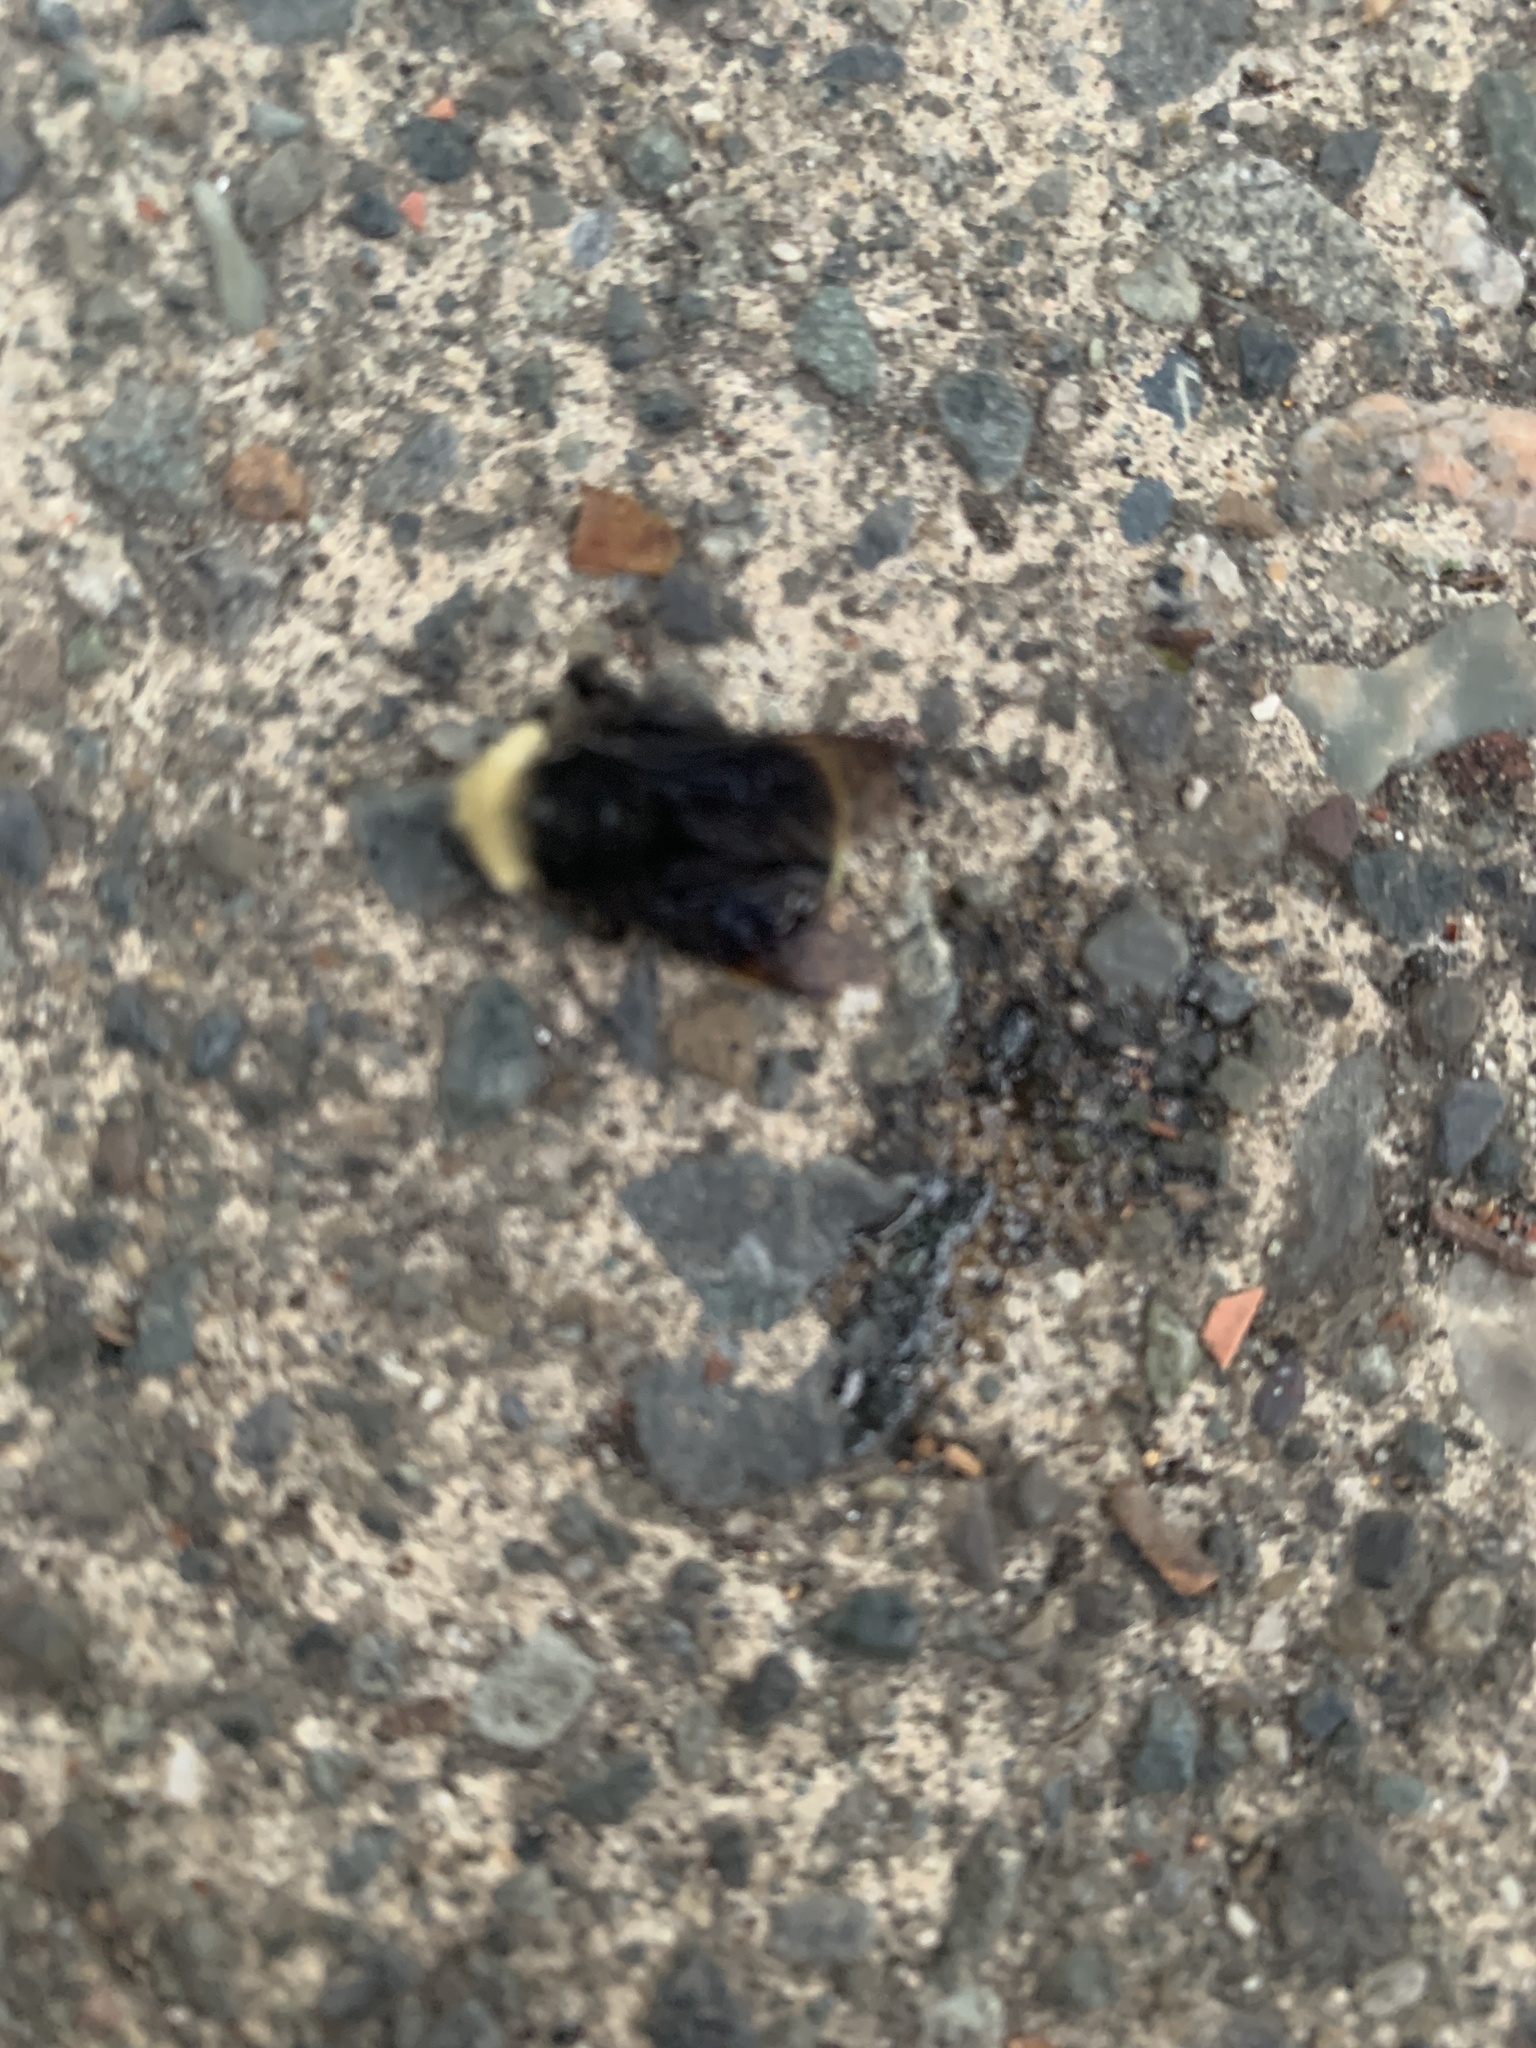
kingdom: Animalia
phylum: Arthropoda
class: Insecta
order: Hymenoptera
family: Apidae
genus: Bombus
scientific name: Bombus vosnesenskii
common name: Vosnesensky bumble bee
